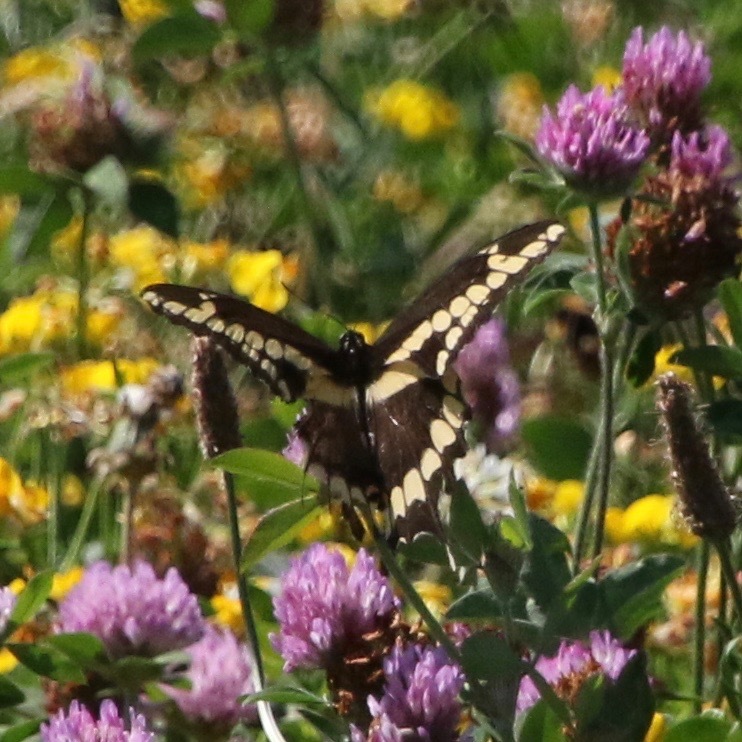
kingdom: Animalia
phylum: Arthropoda
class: Insecta
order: Lepidoptera
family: Papilionidae
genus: Papilio
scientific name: Papilio cresphontes
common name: Giant swallowtail
